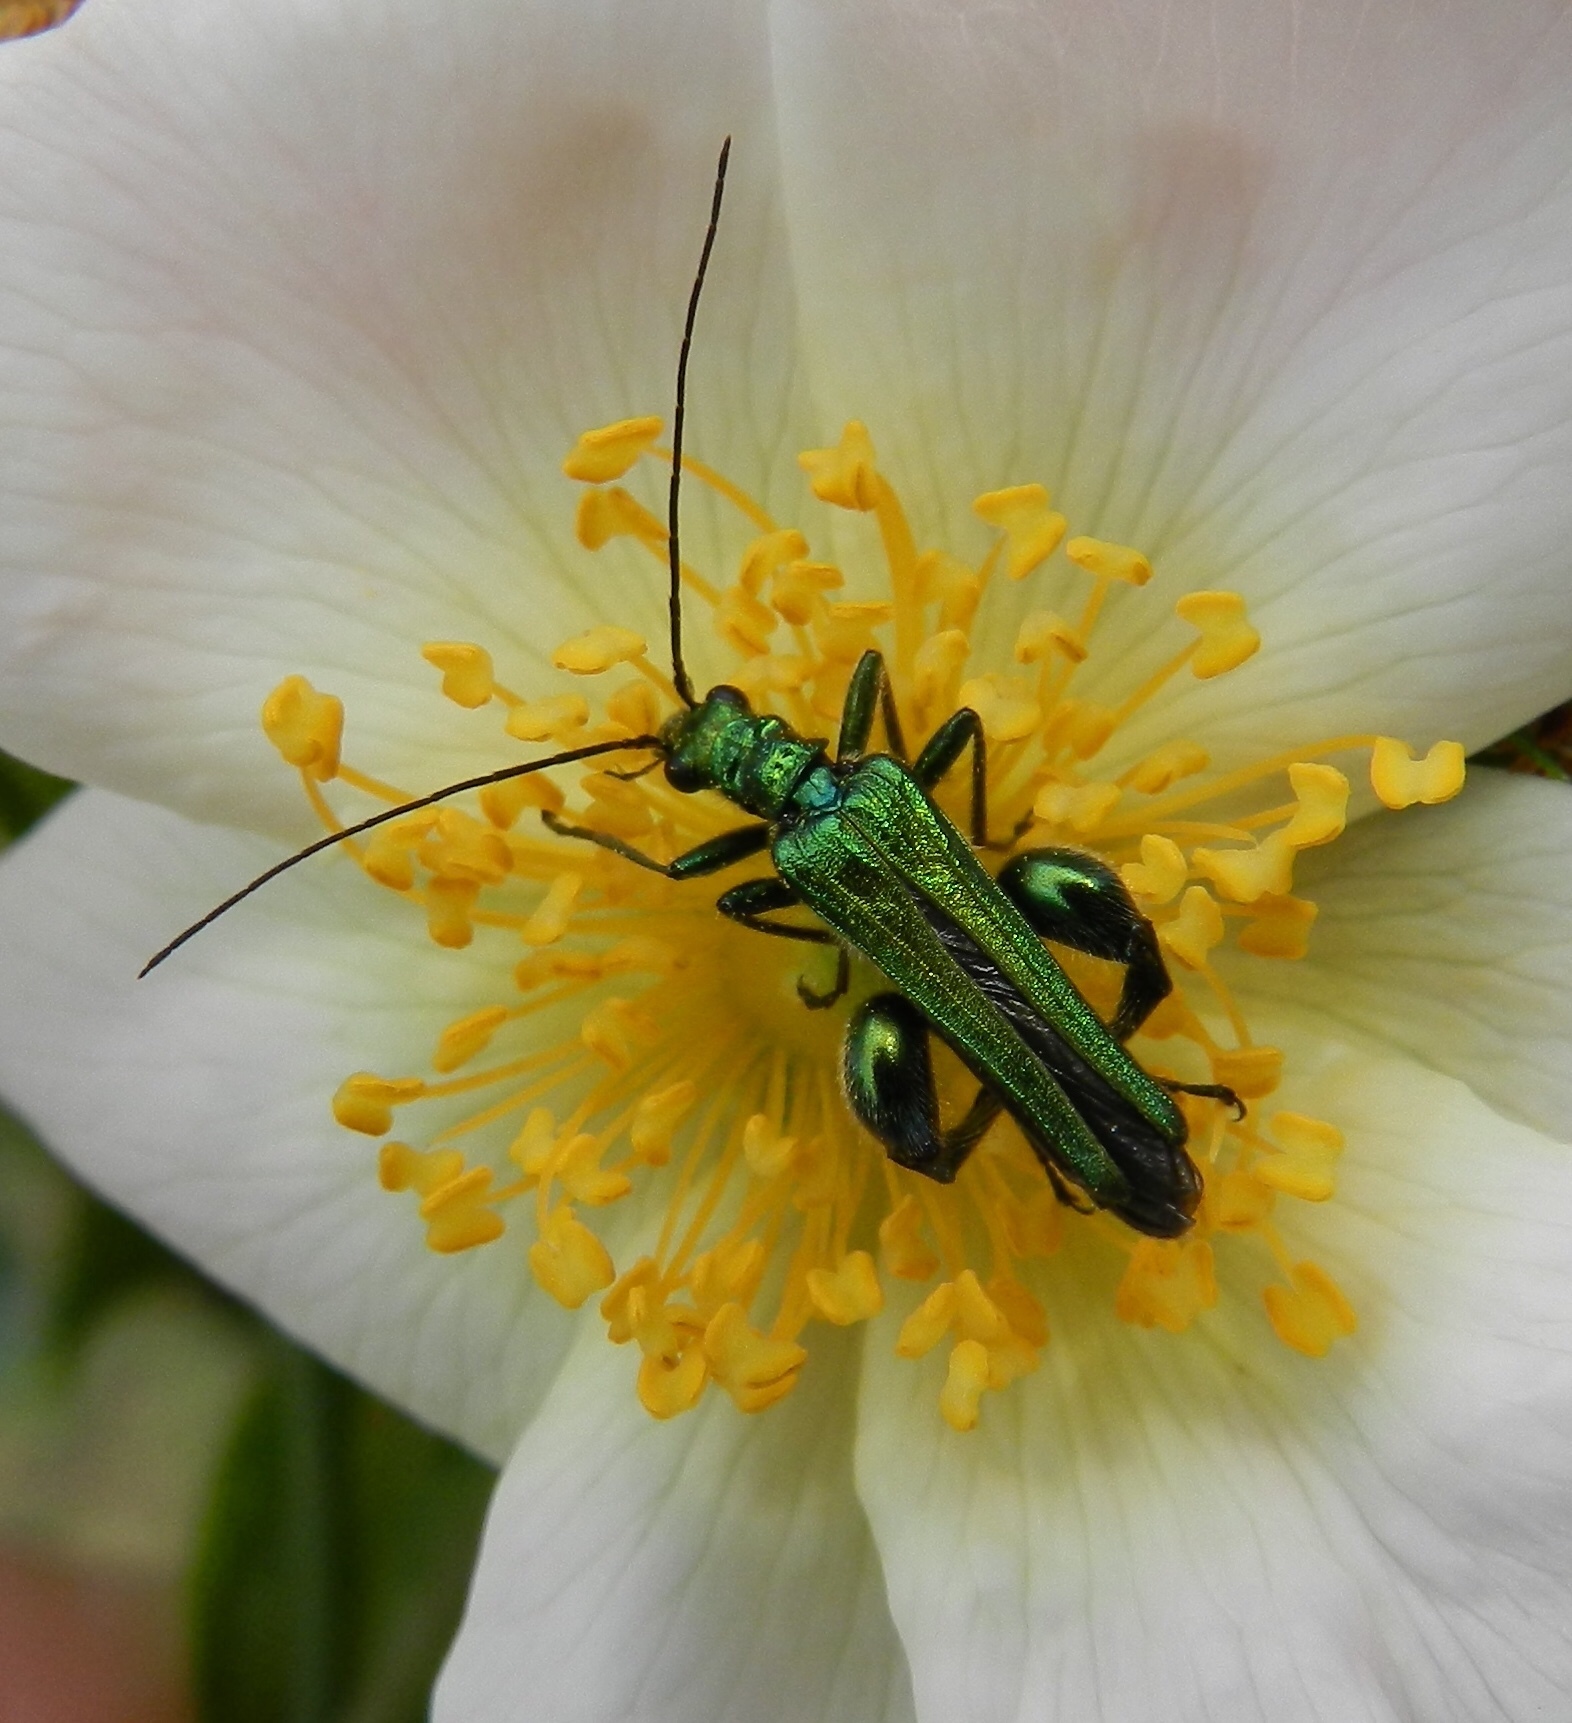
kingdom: Animalia
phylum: Arthropoda
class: Insecta
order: Coleoptera
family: Oedemeridae
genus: Oedemera
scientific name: Oedemera nobilis
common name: Swollen-thighed beetle
